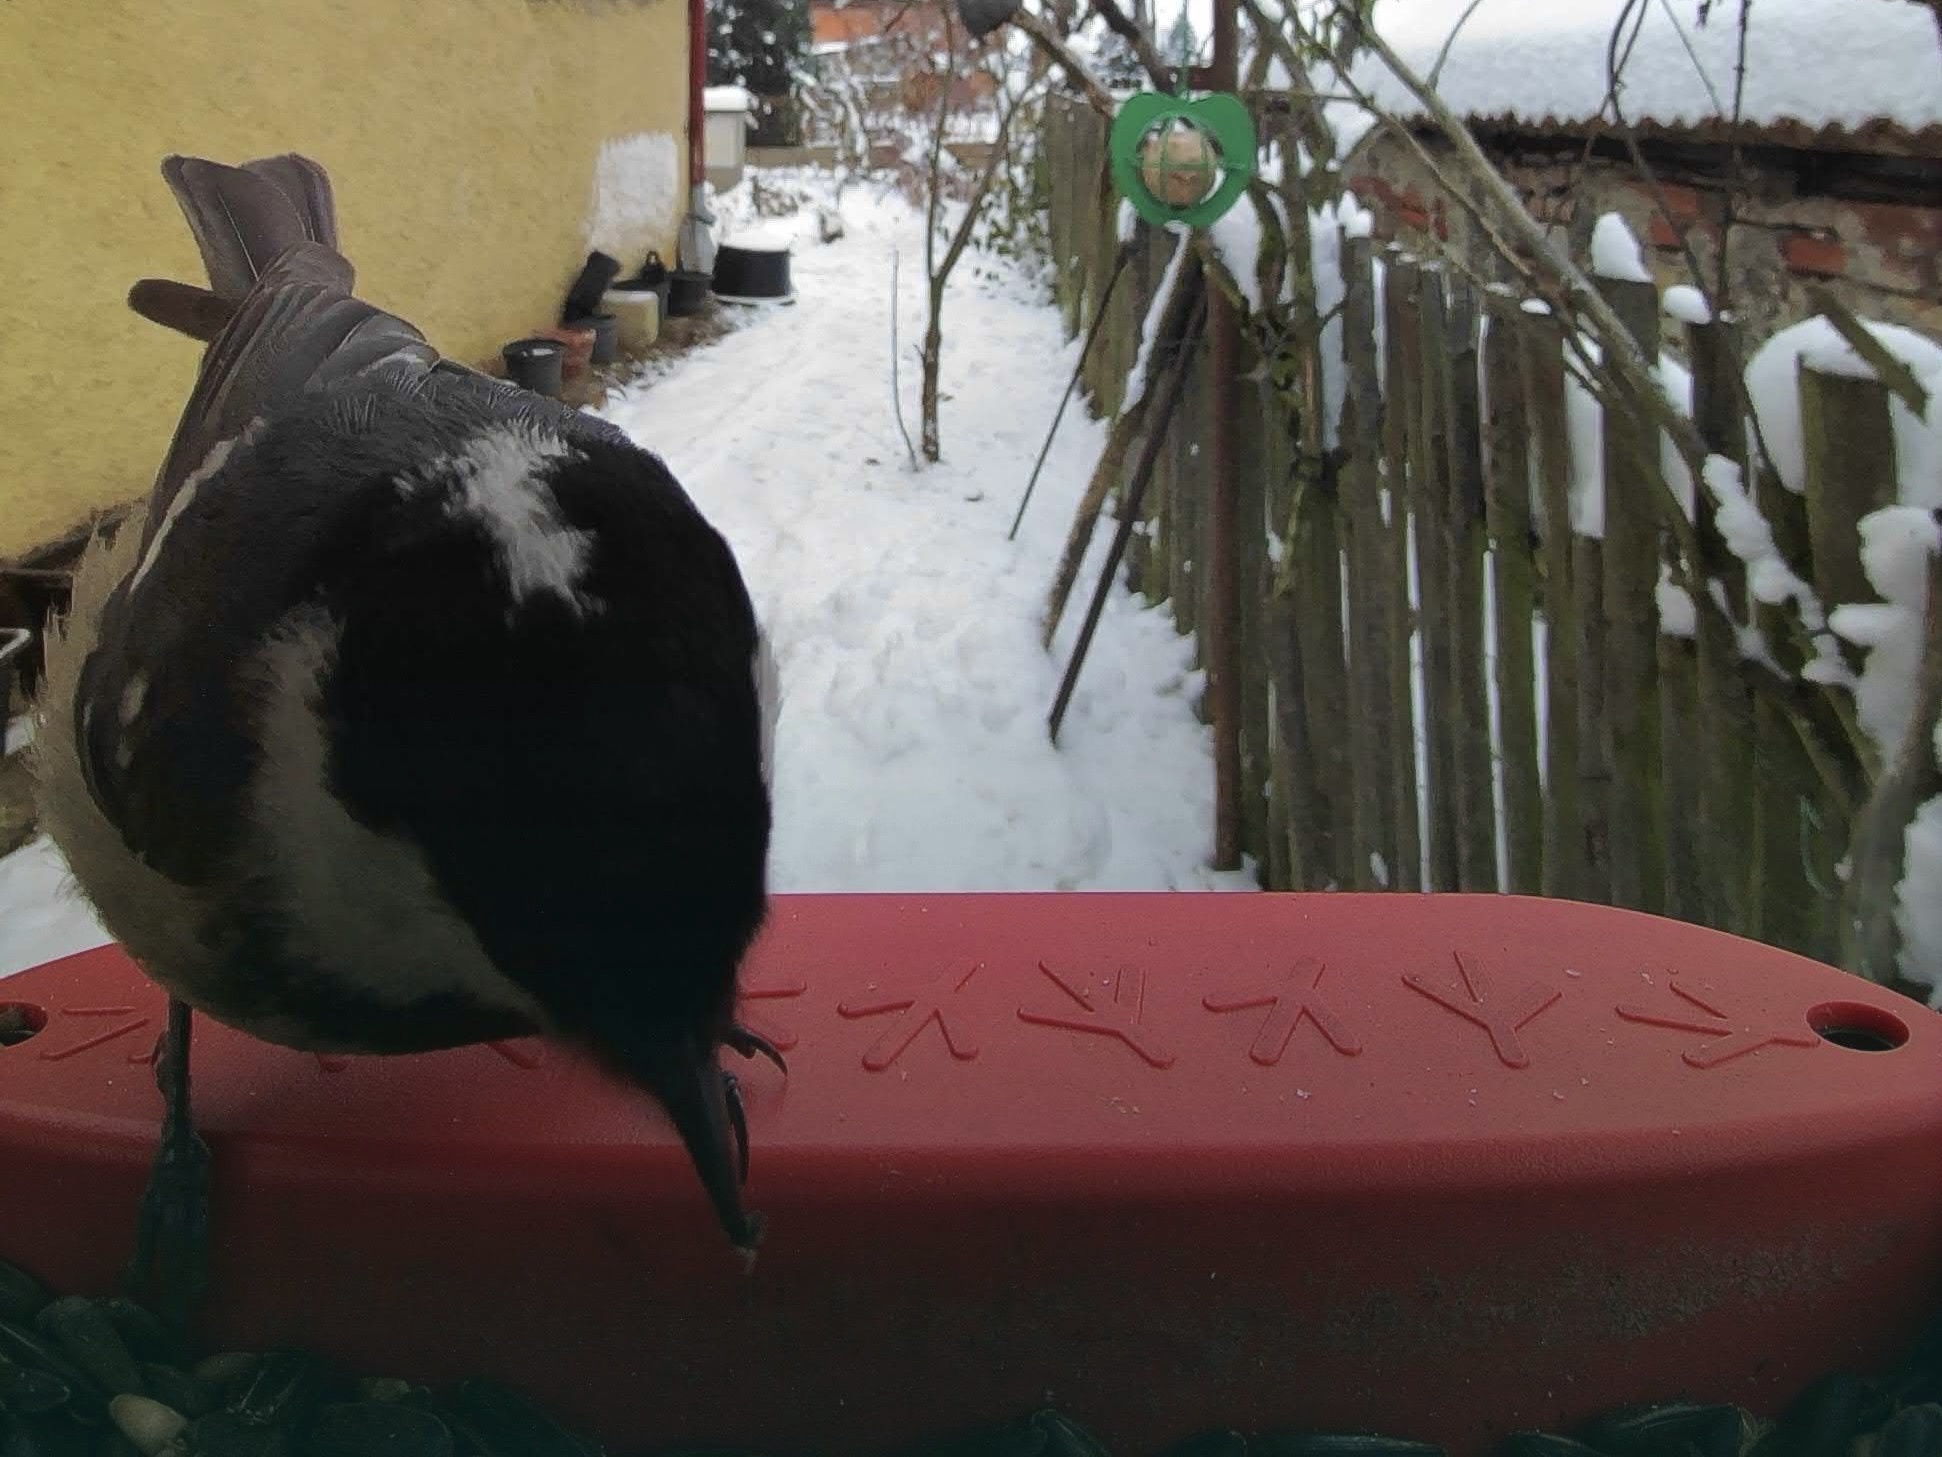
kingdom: Animalia
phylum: Chordata
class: Aves
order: Passeriformes
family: Paridae
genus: Periparus
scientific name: Periparus ater
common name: Coal tit
